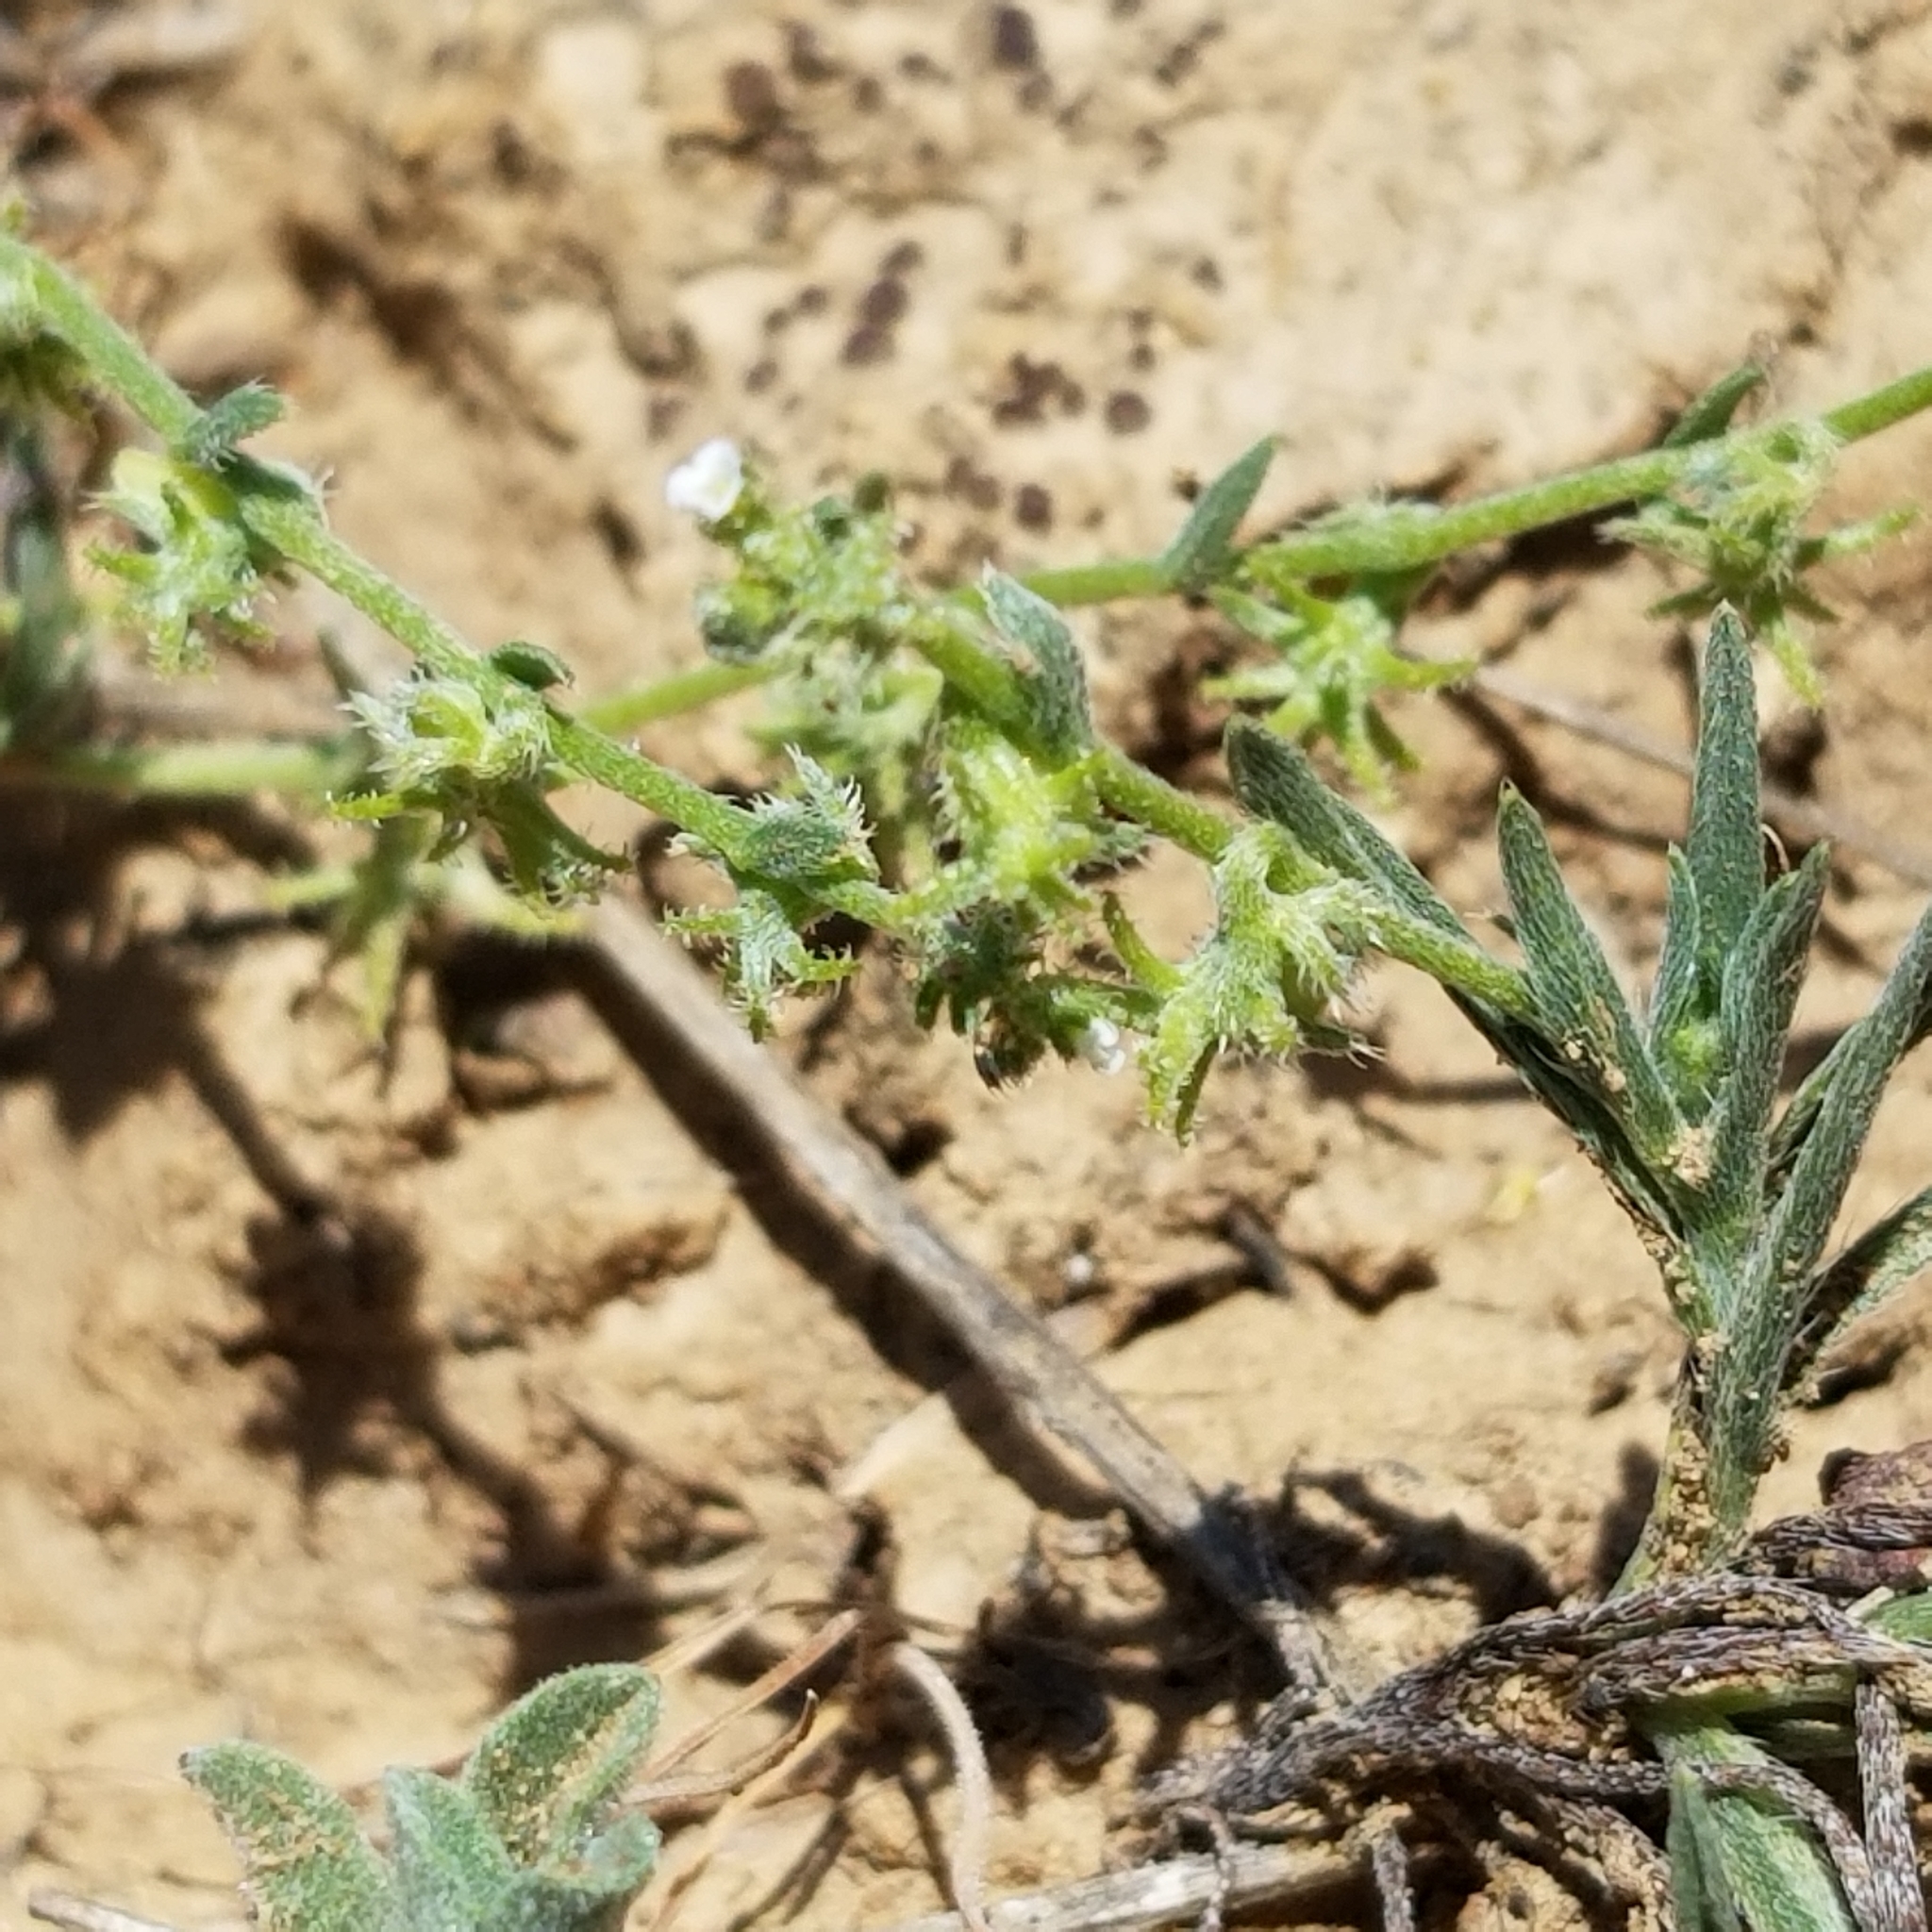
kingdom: Plantae
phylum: Tracheophyta
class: Magnoliopsida
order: Boraginales
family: Boraginaceae
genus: Harpagonella
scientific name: Harpagonella palmeri
